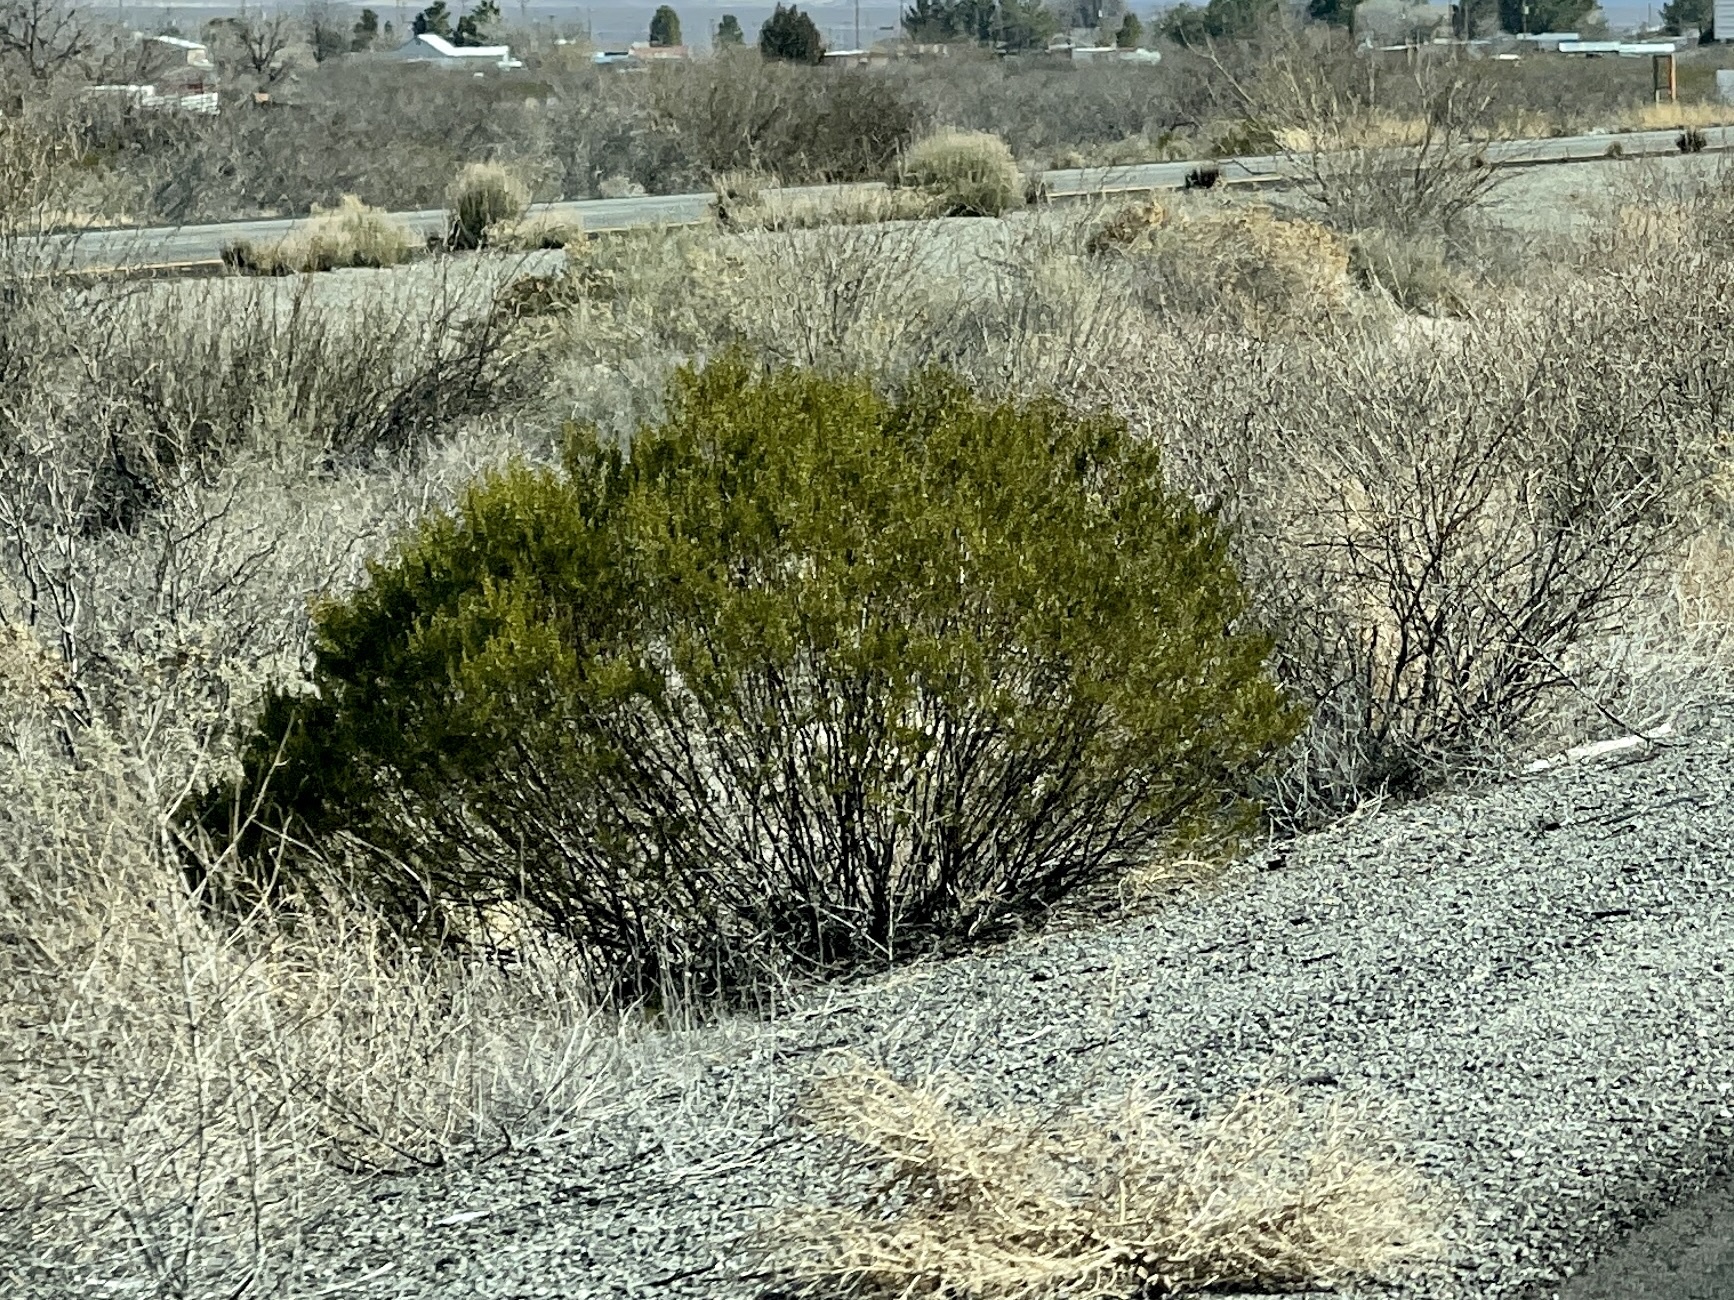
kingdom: Plantae
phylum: Tracheophyta
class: Magnoliopsida
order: Zygophyllales
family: Zygophyllaceae
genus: Larrea
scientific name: Larrea tridentata
